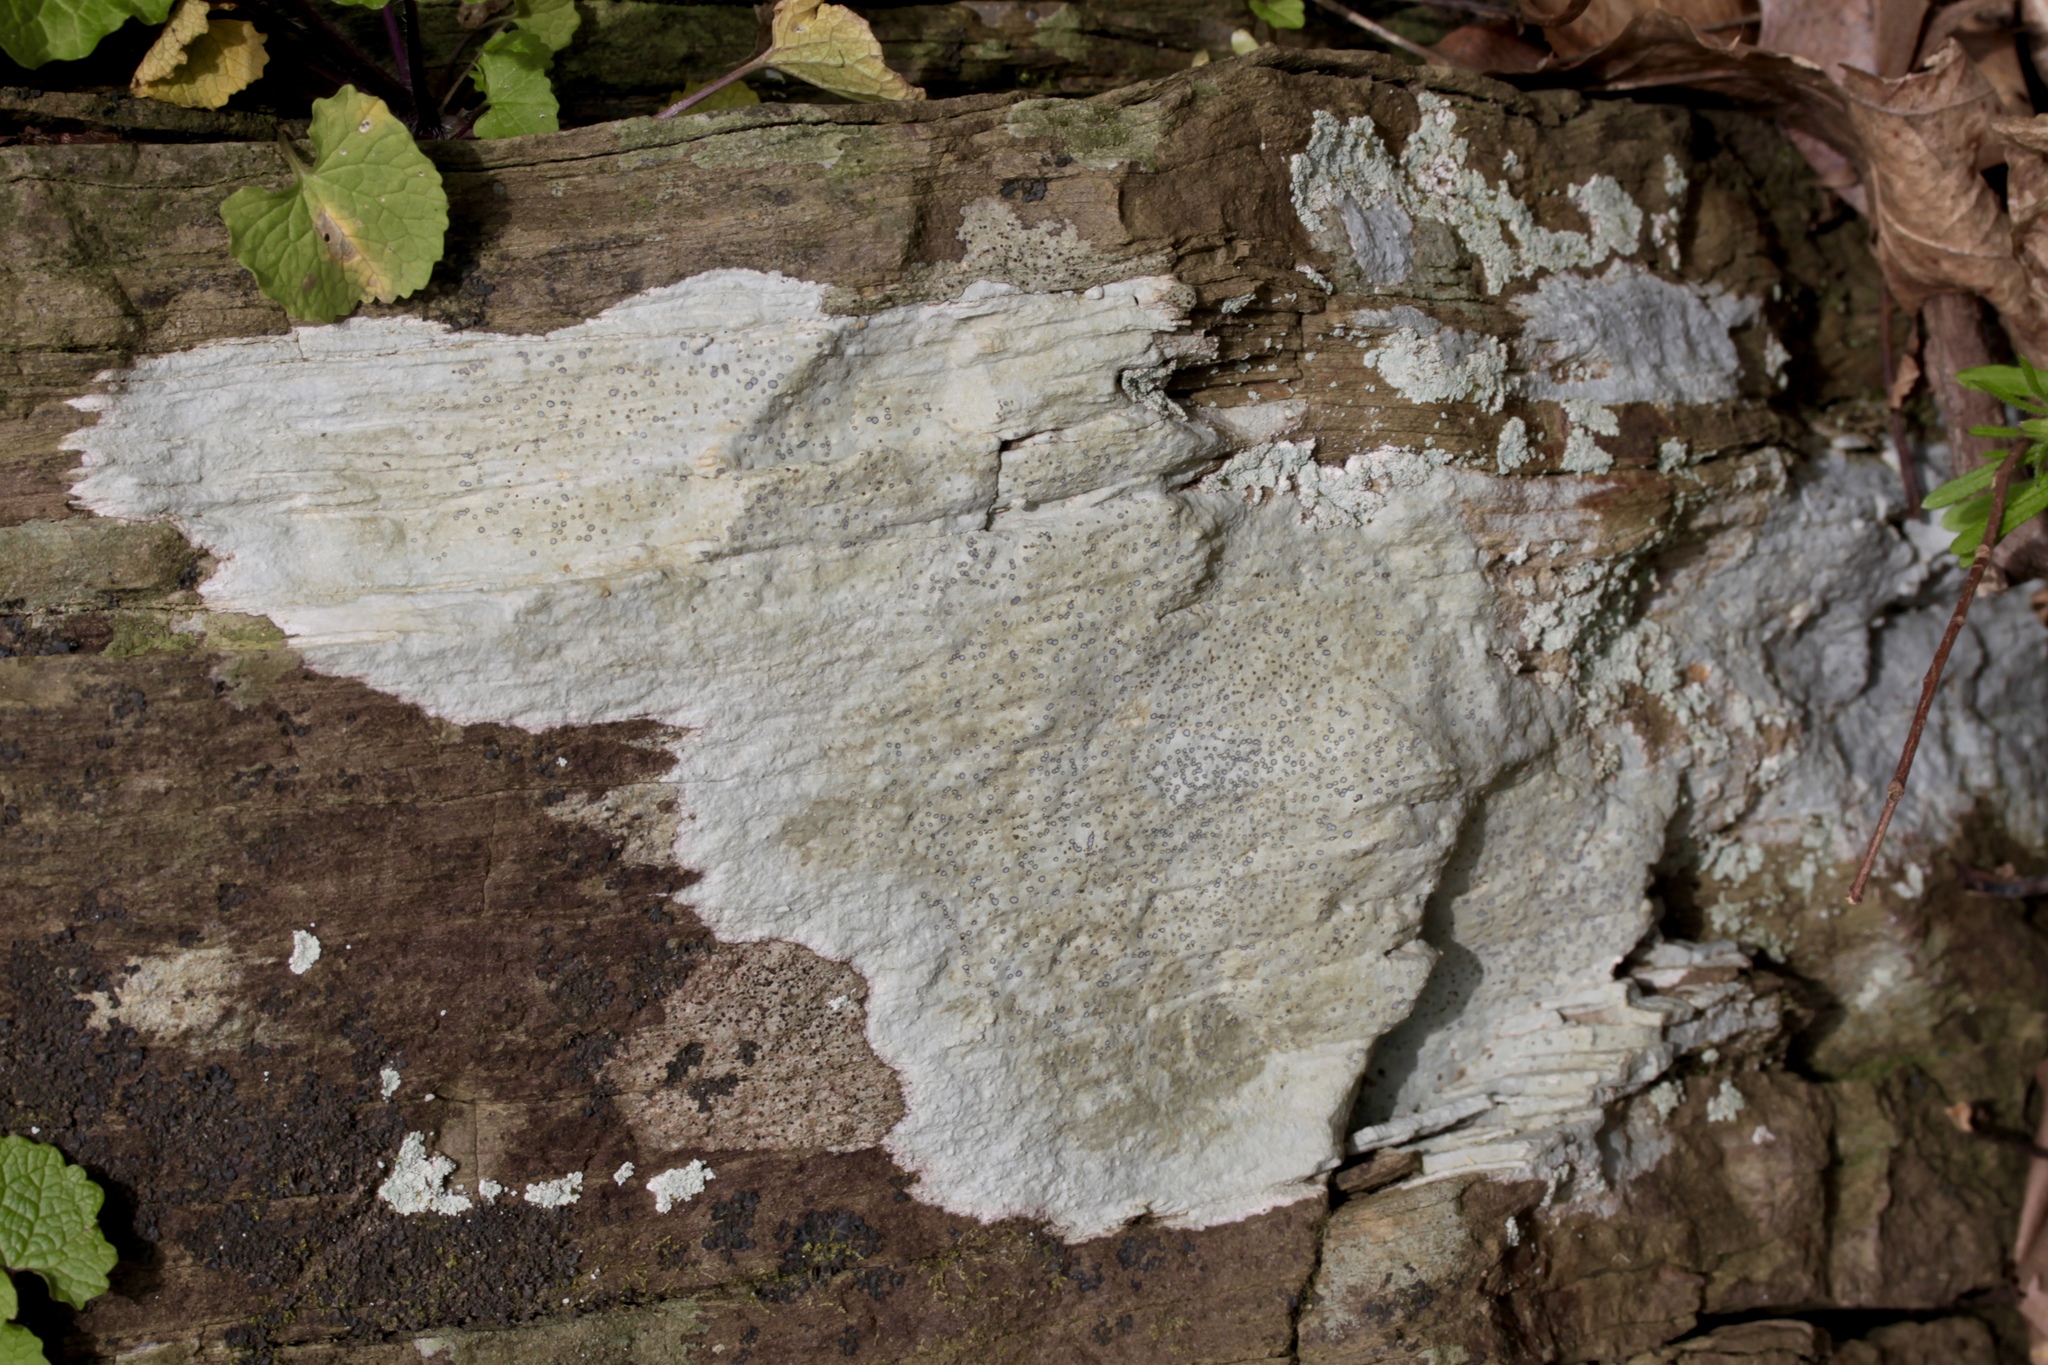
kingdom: Fungi
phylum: Ascomycota
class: Lecanoromycetes
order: Lecideales
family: Lecideaceae
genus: Porpidia
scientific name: Porpidia albocaerulescens
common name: Smokey-eyed boulder lichen
